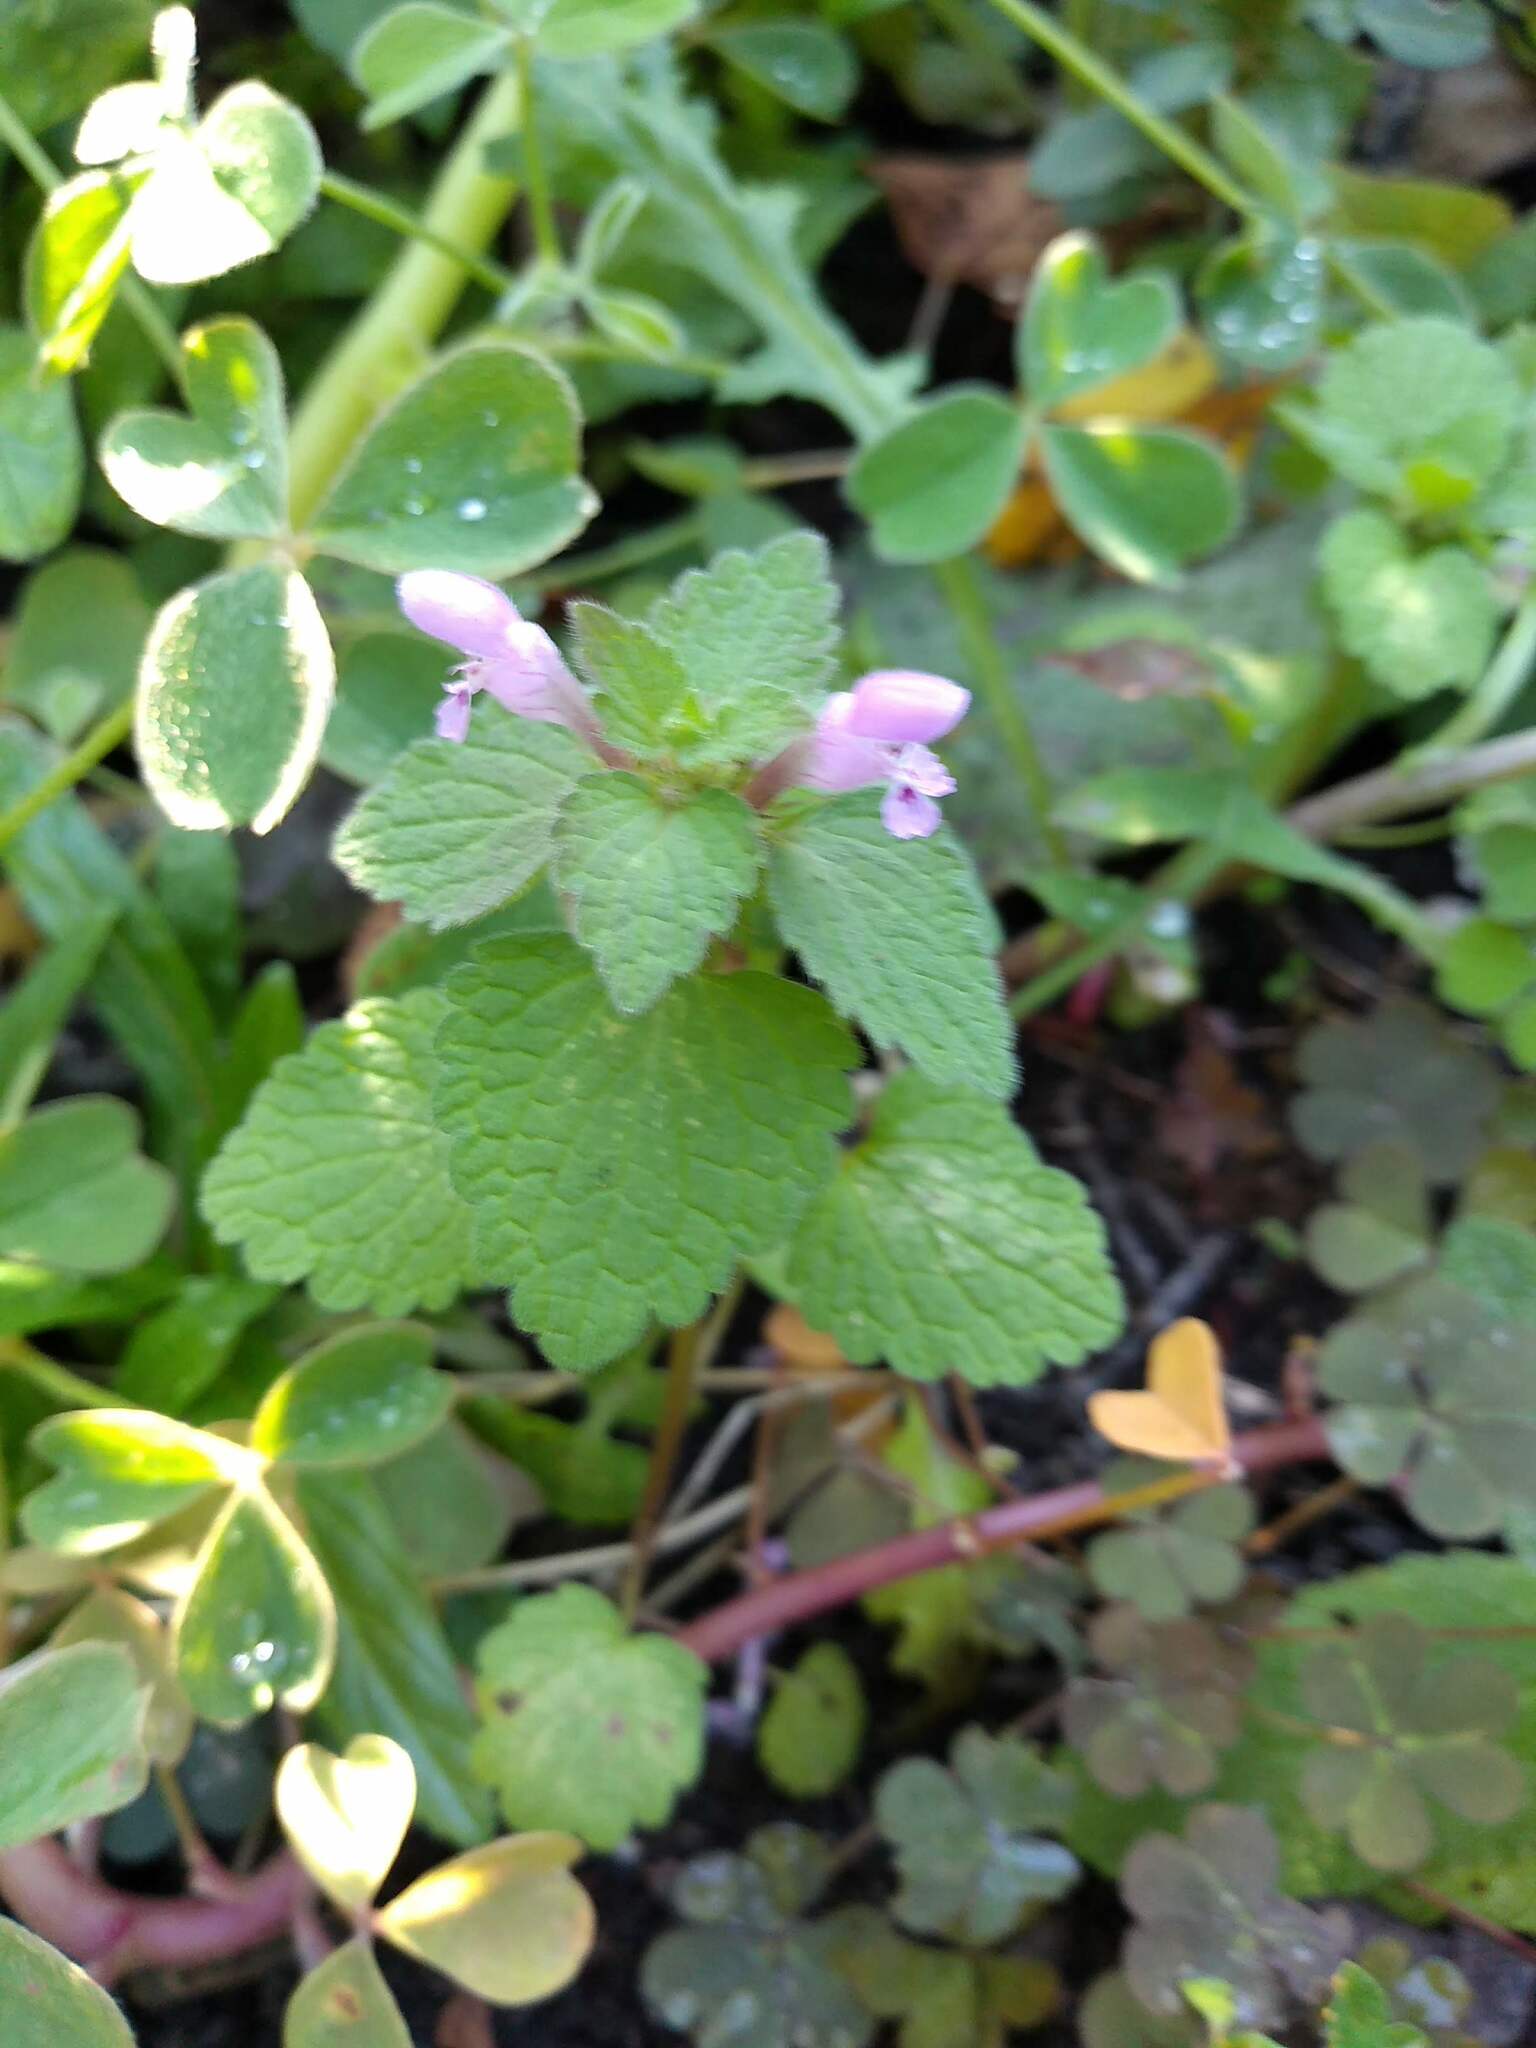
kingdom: Plantae
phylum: Tracheophyta
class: Magnoliopsida
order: Lamiales
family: Lamiaceae
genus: Lamium
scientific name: Lamium purpureum
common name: Red dead-nettle
